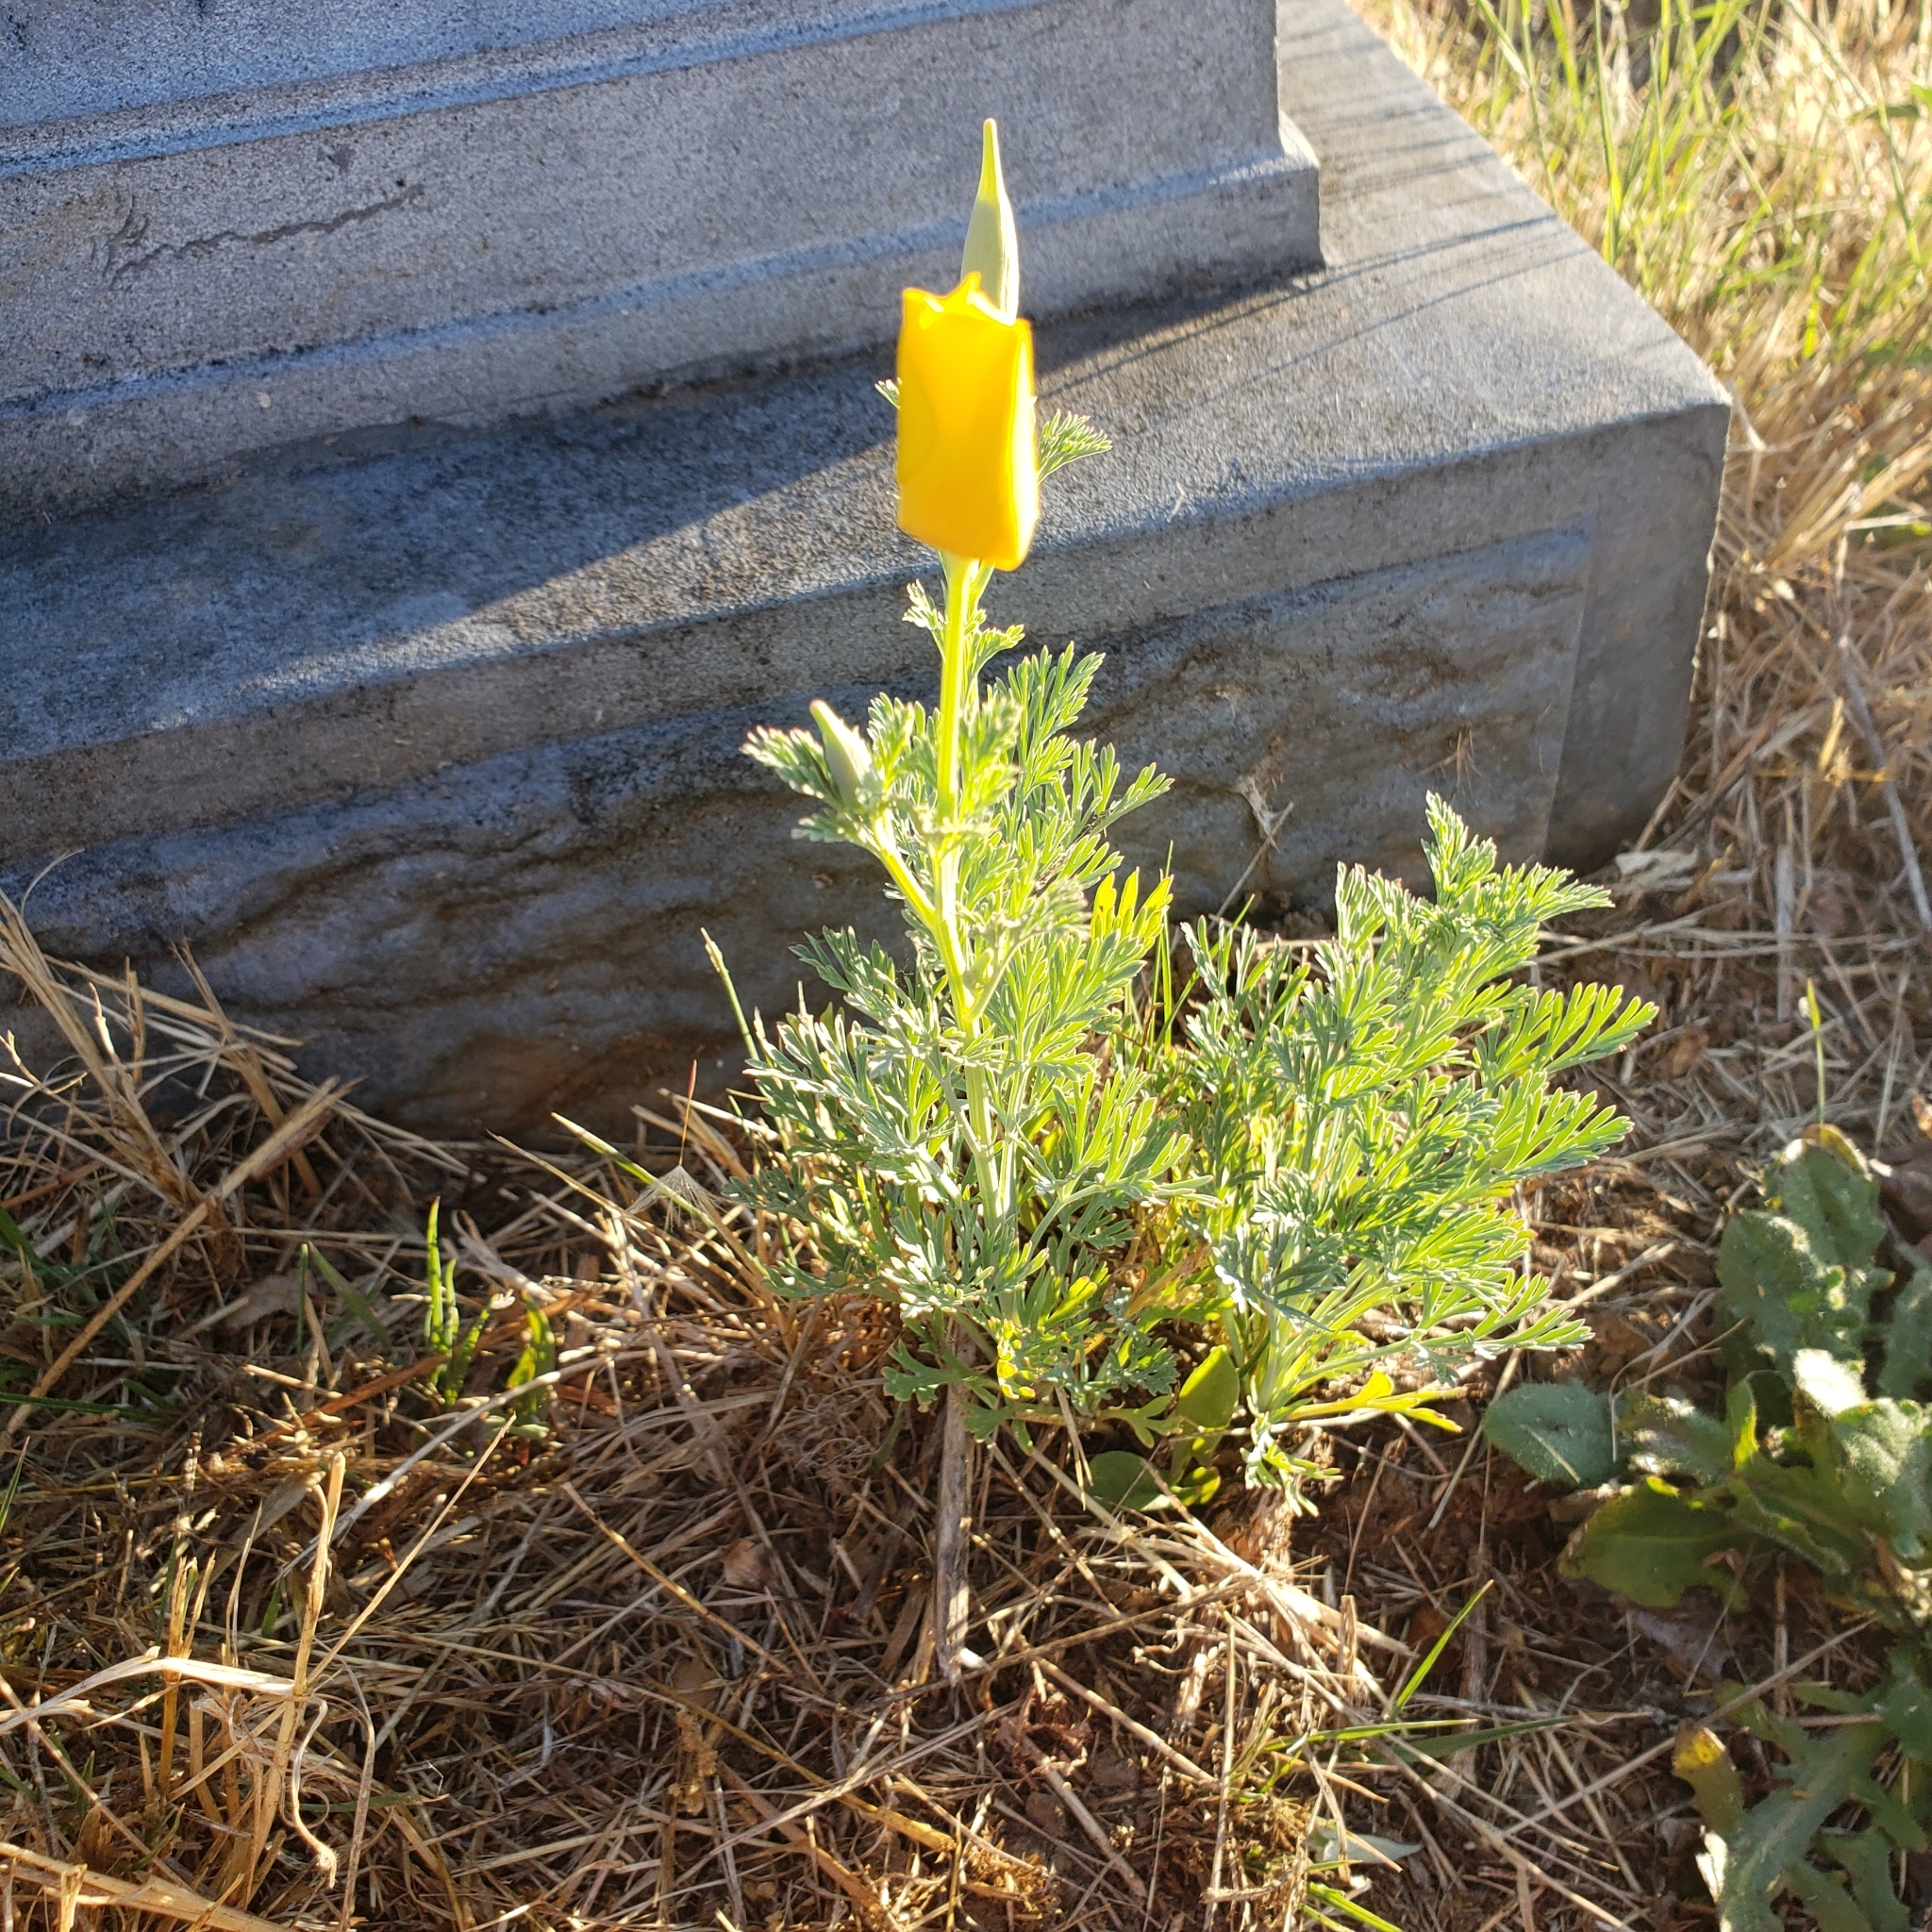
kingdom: Plantae
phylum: Tracheophyta
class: Magnoliopsida
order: Ranunculales
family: Papaveraceae
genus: Eschscholzia
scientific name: Eschscholzia californica
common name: California poppy
